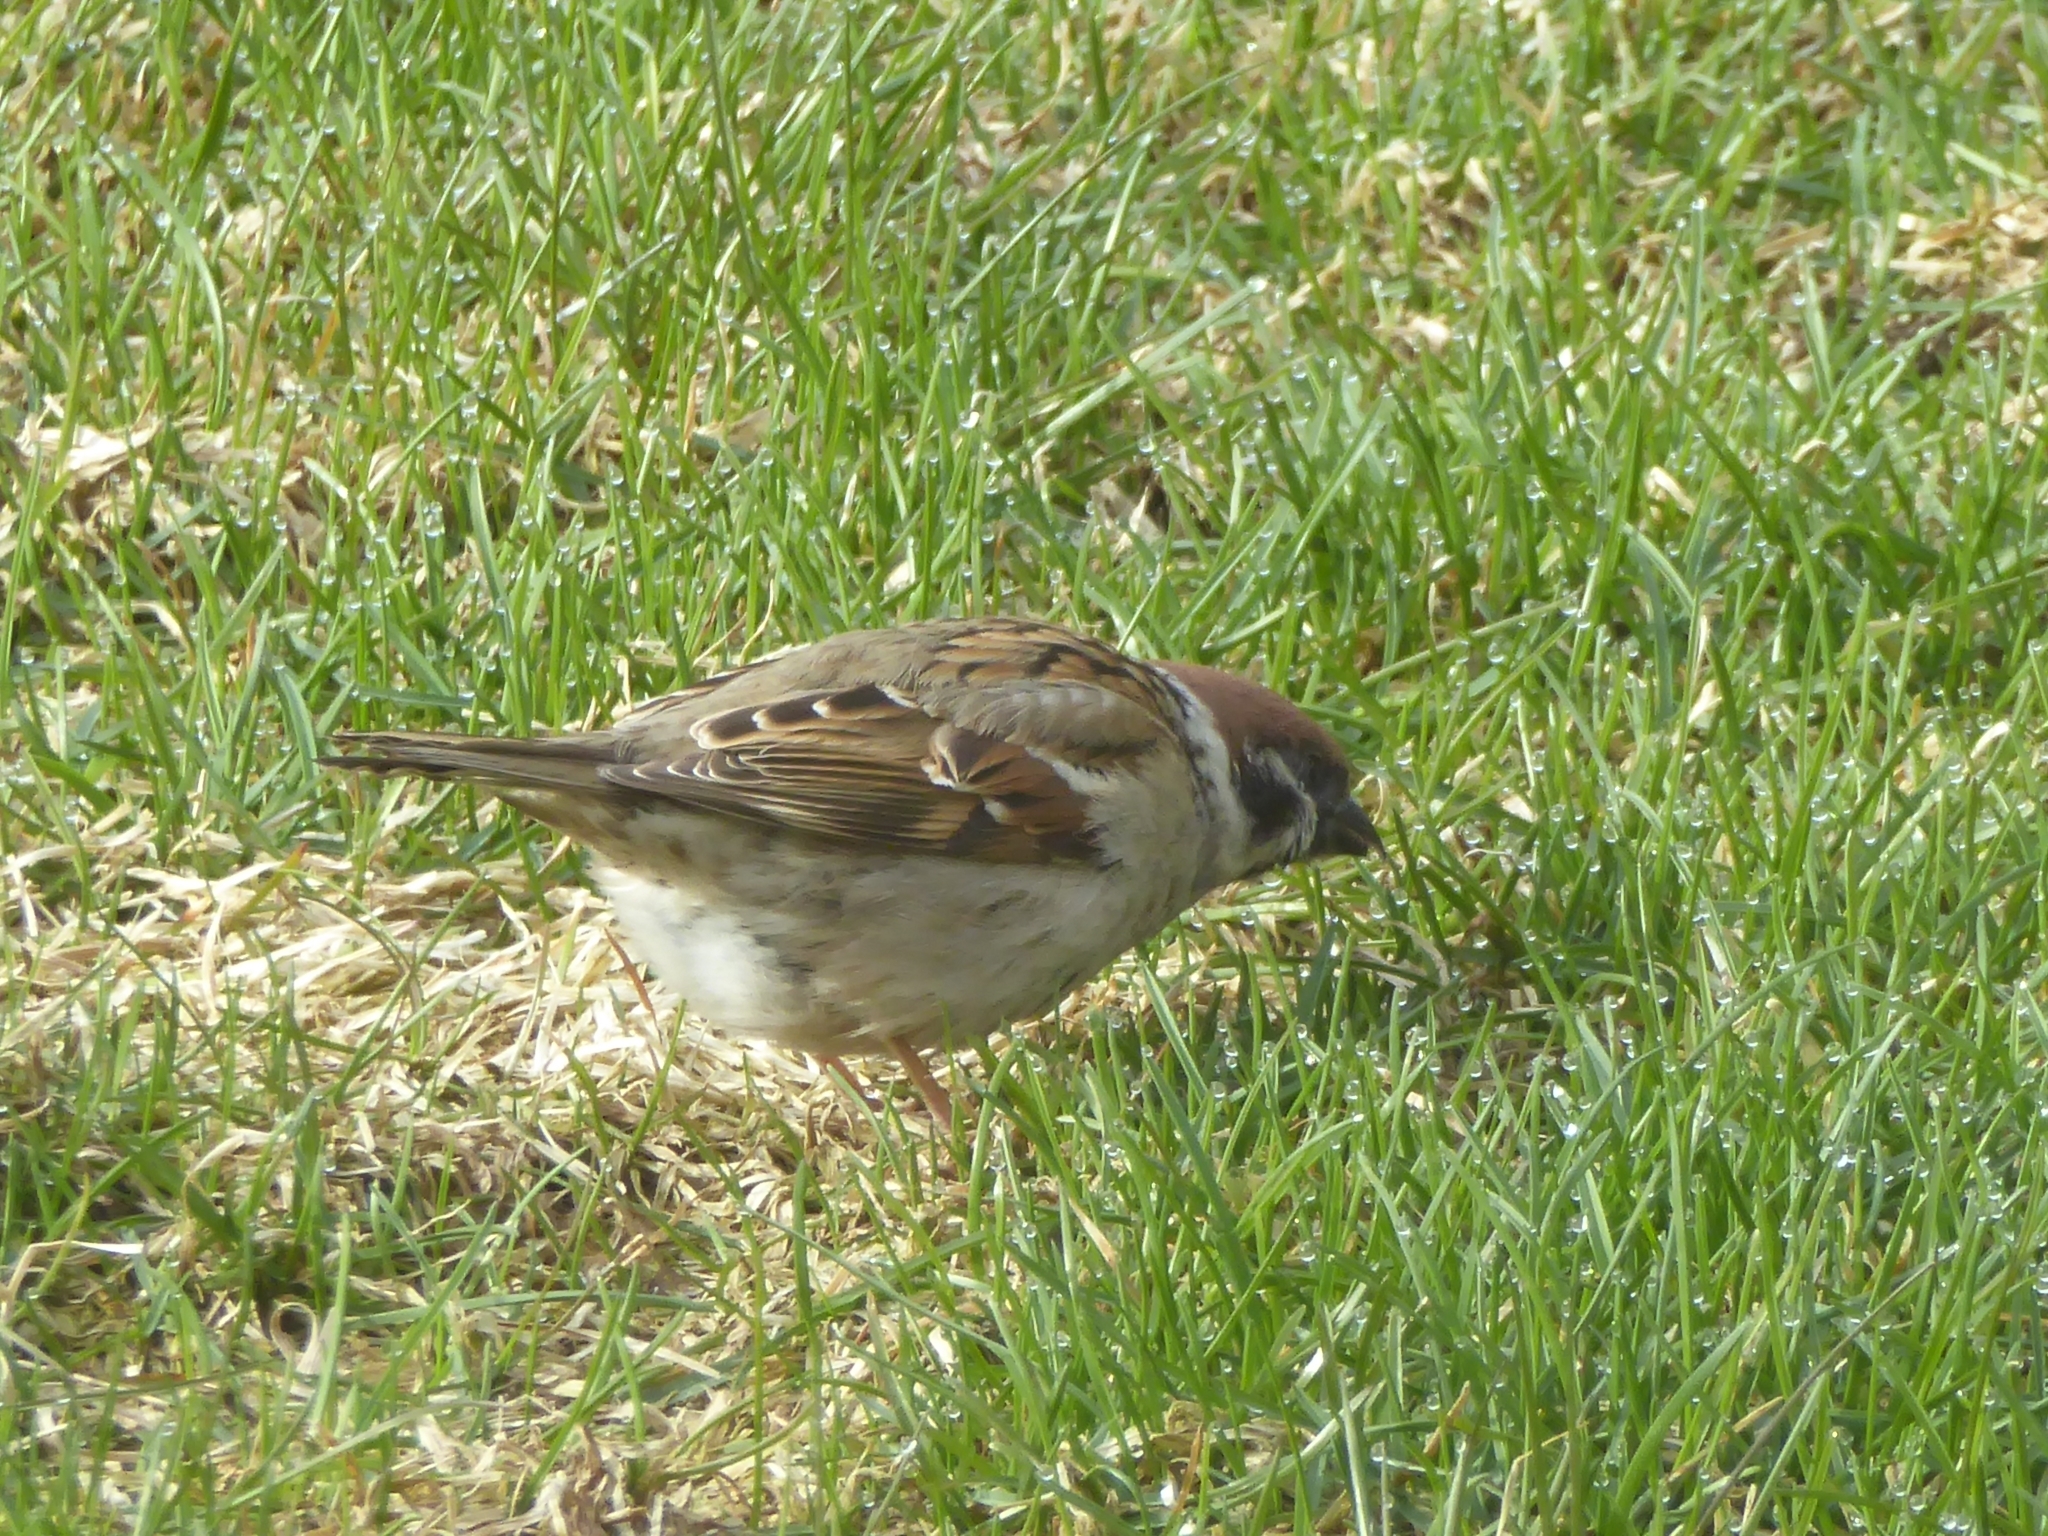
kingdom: Animalia
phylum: Chordata
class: Aves
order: Passeriformes
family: Passeridae
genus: Passer
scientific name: Passer montanus
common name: Eurasian tree sparrow
